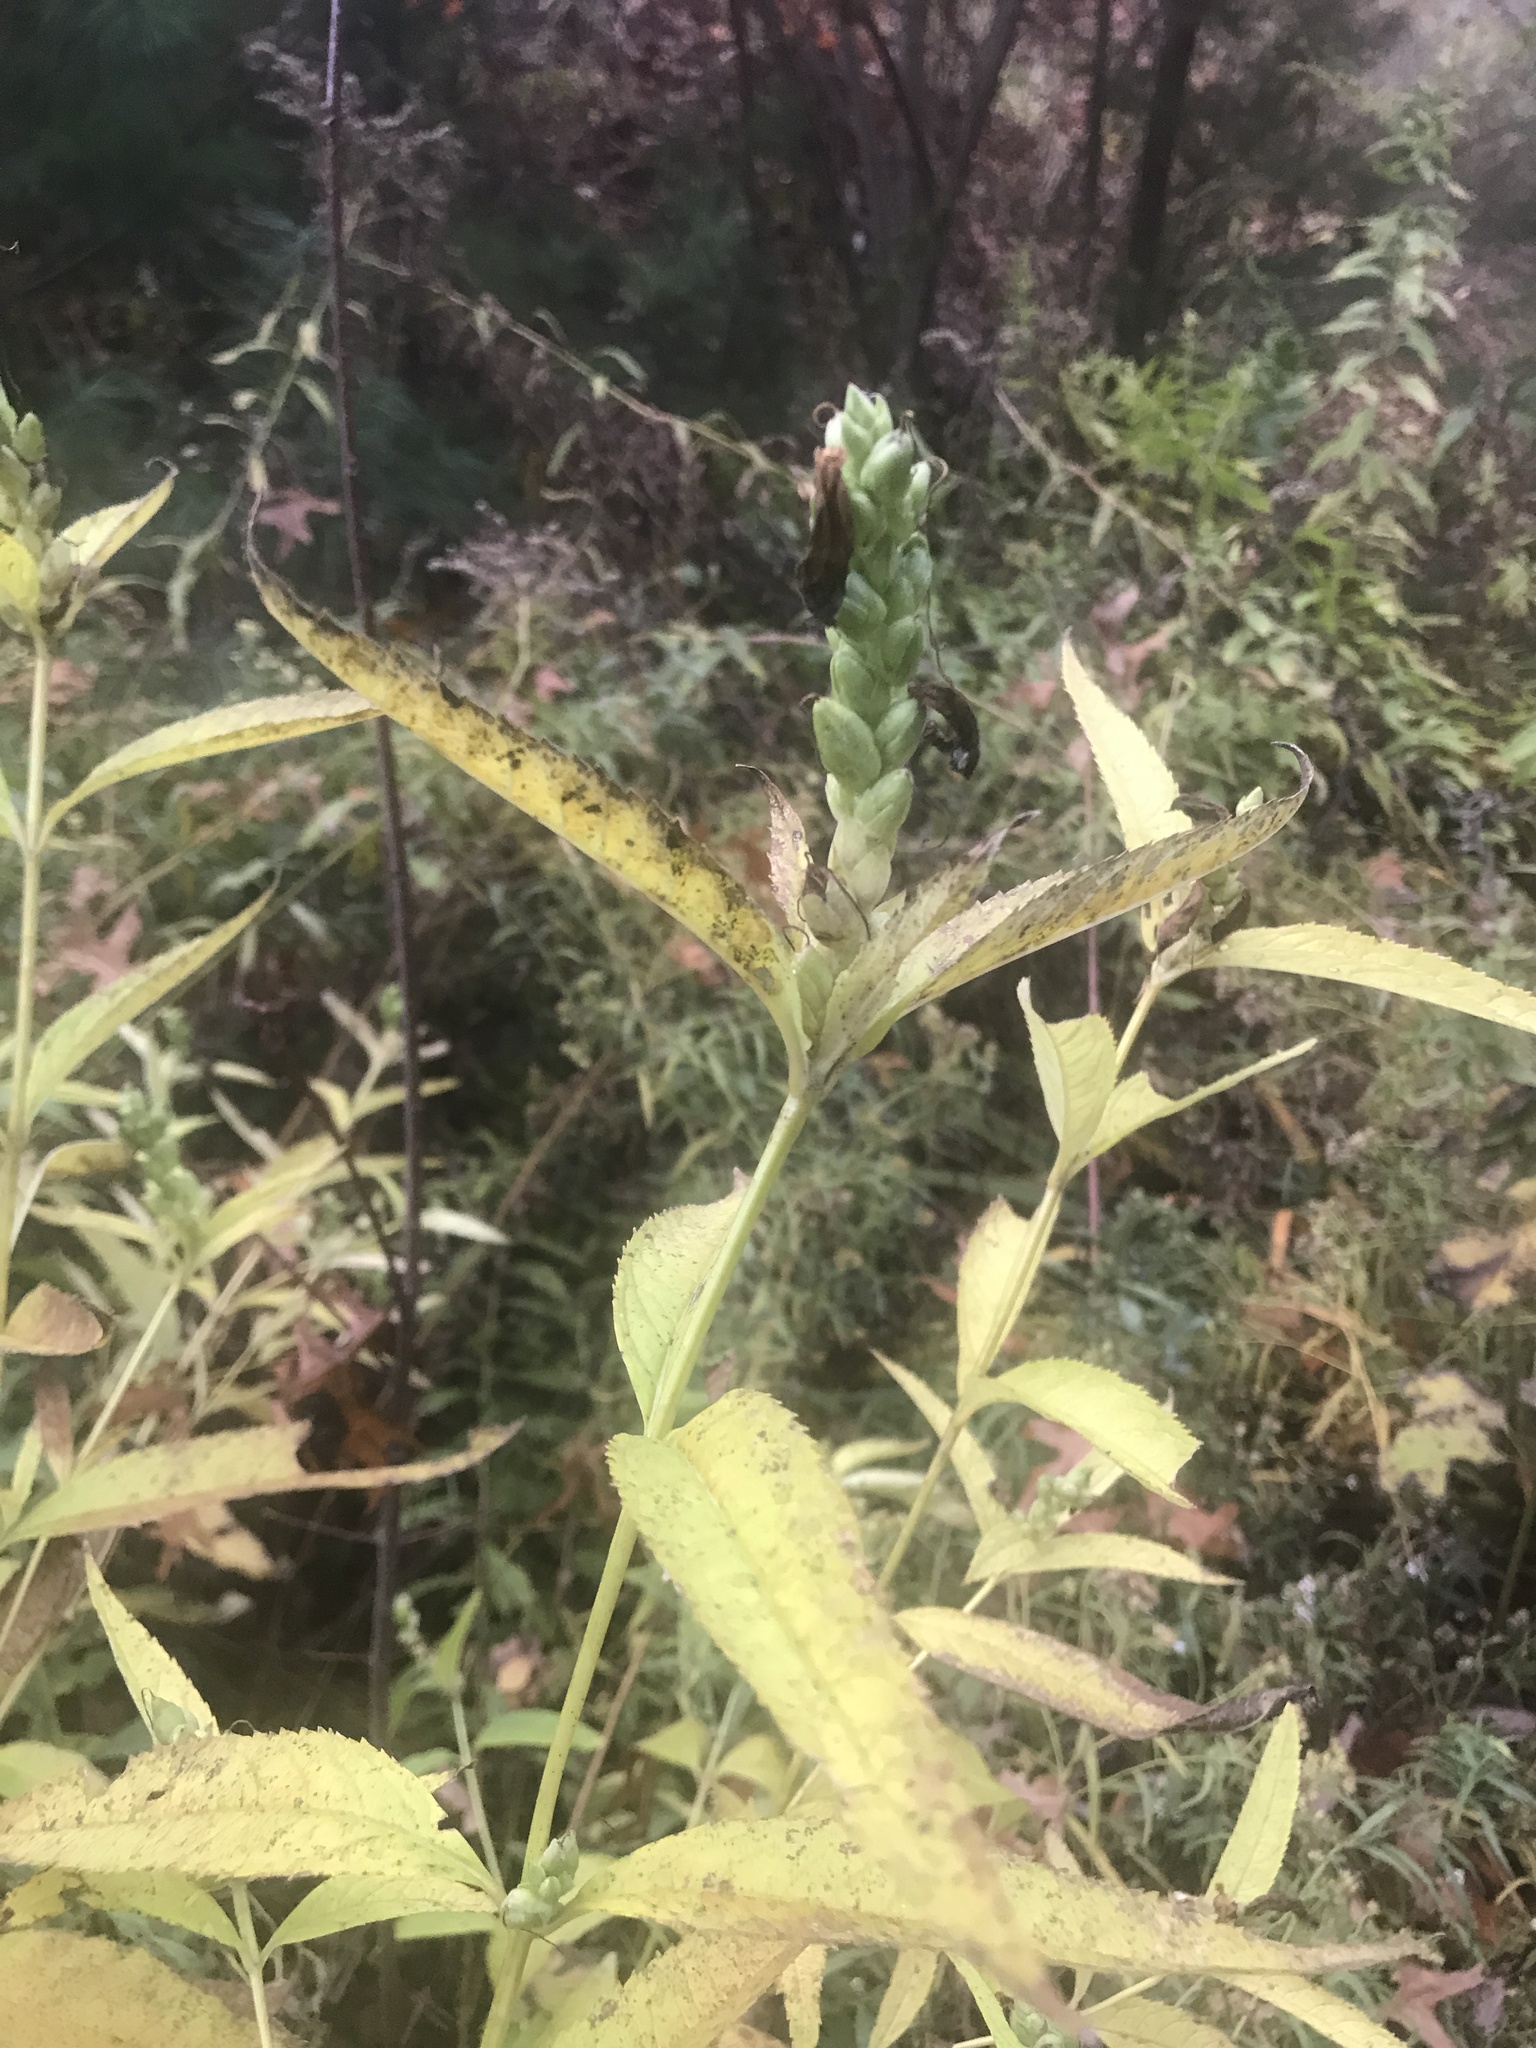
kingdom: Plantae
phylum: Tracheophyta
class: Magnoliopsida
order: Lamiales
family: Plantaginaceae
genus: Chelone
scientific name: Chelone glabra
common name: Snakehead
